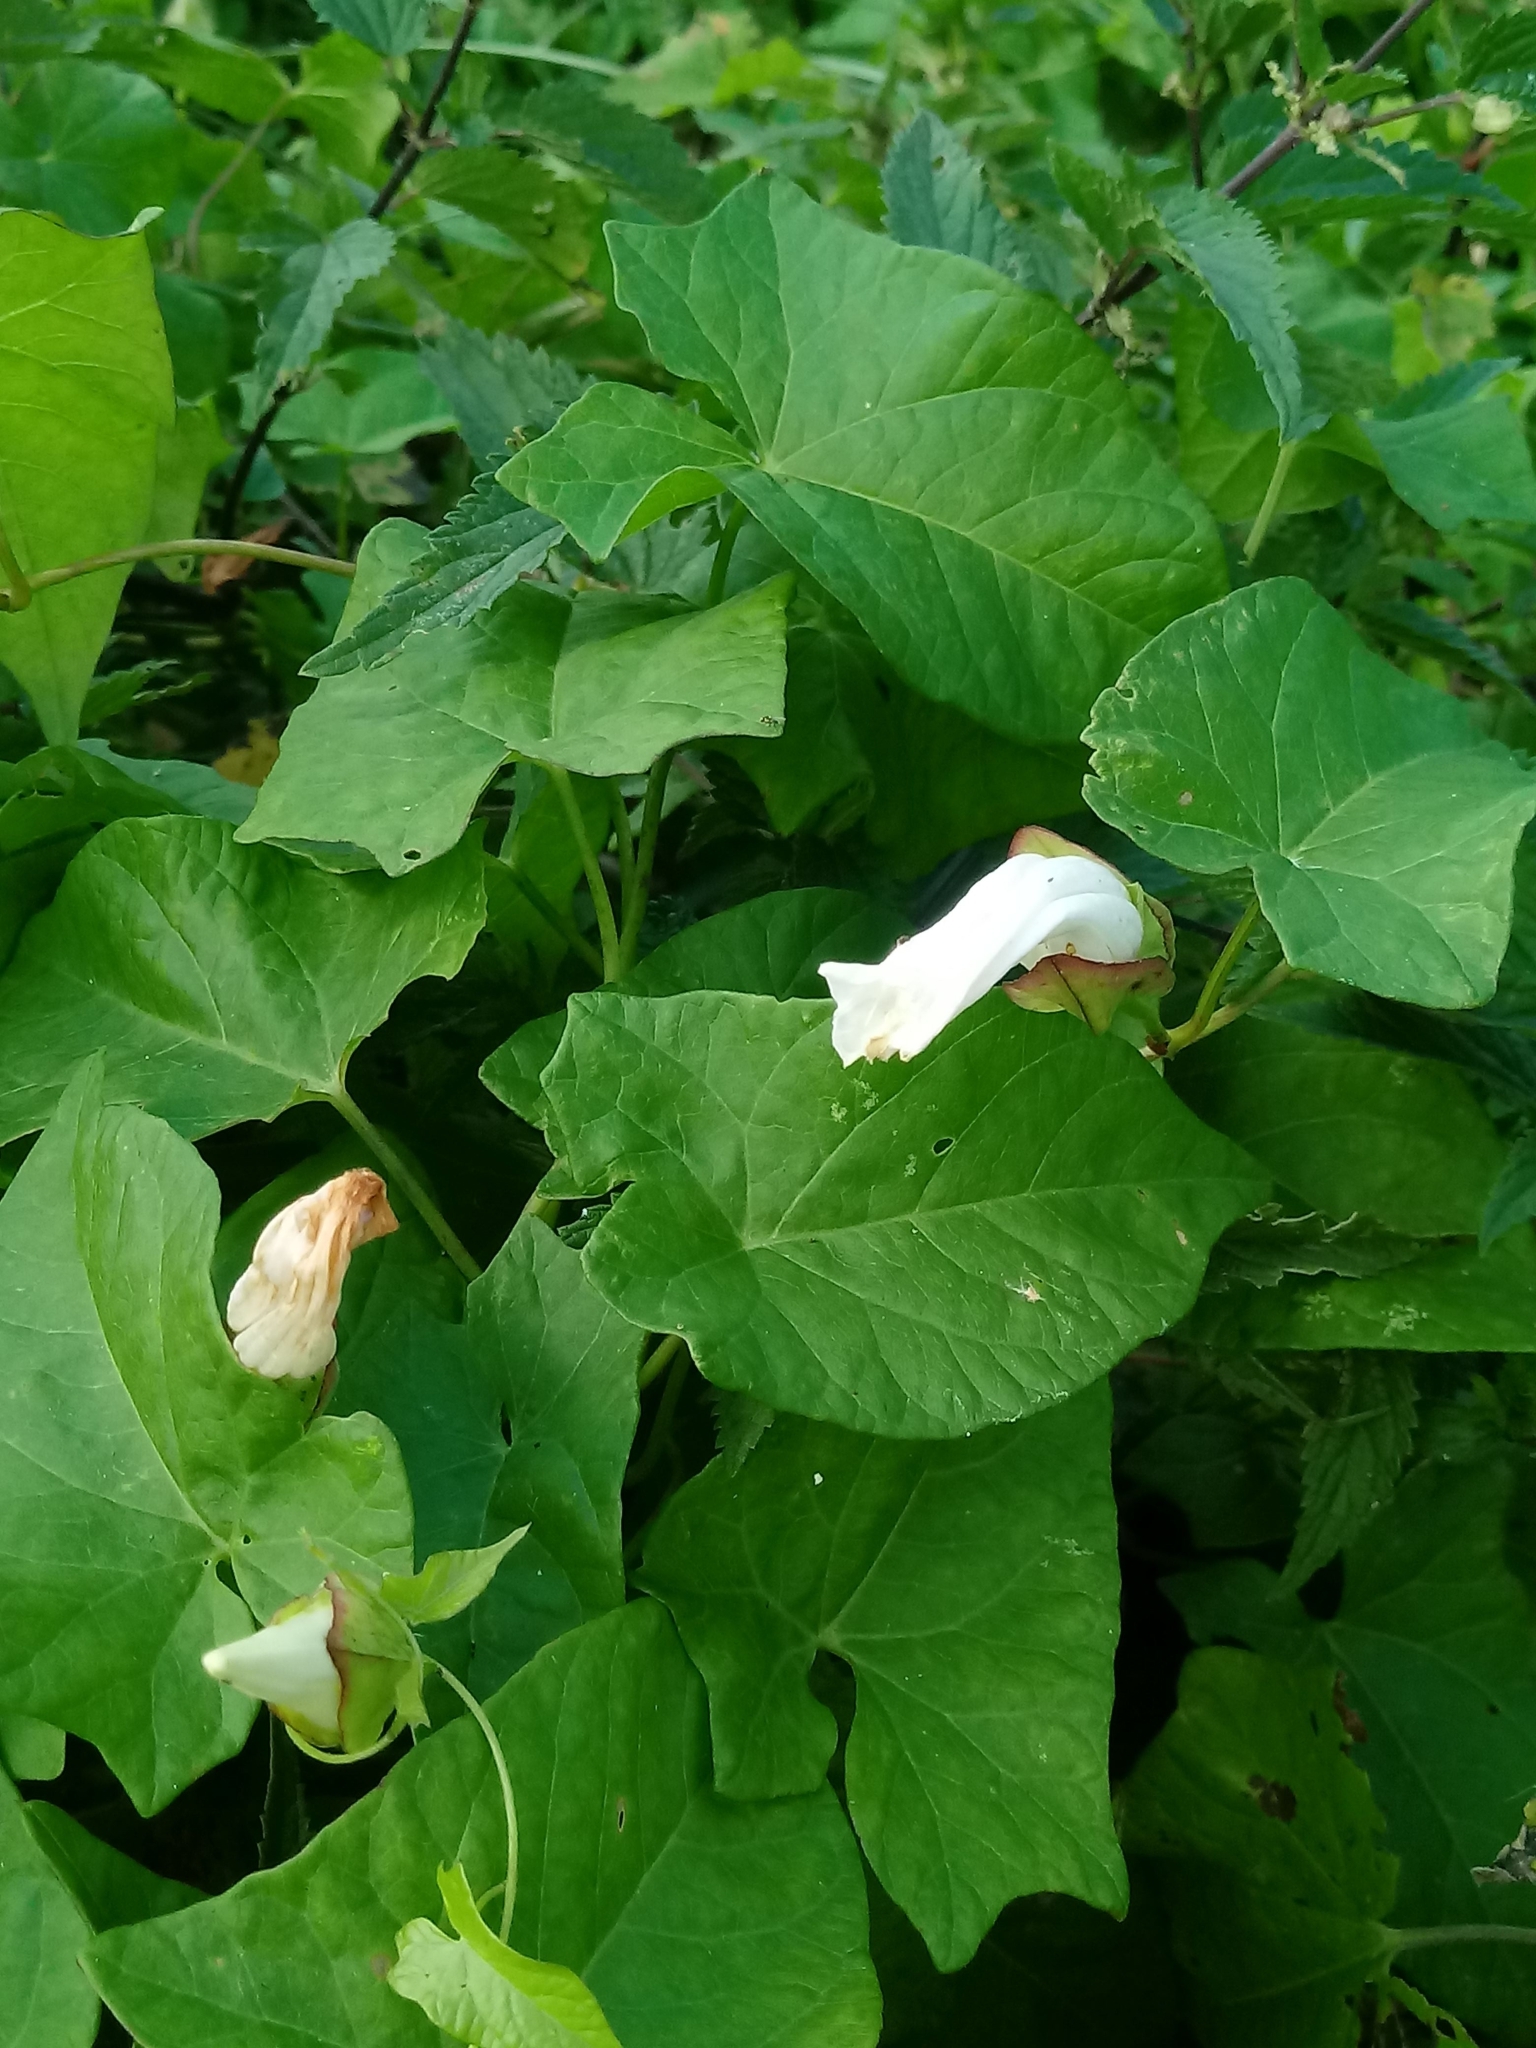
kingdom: Plantae
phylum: Tracheophyta
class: Magnoliopsida
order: Solanales
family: Convolvulaceae
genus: Calystegia
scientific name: Calystegia sepium
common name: Hedge bindweed
